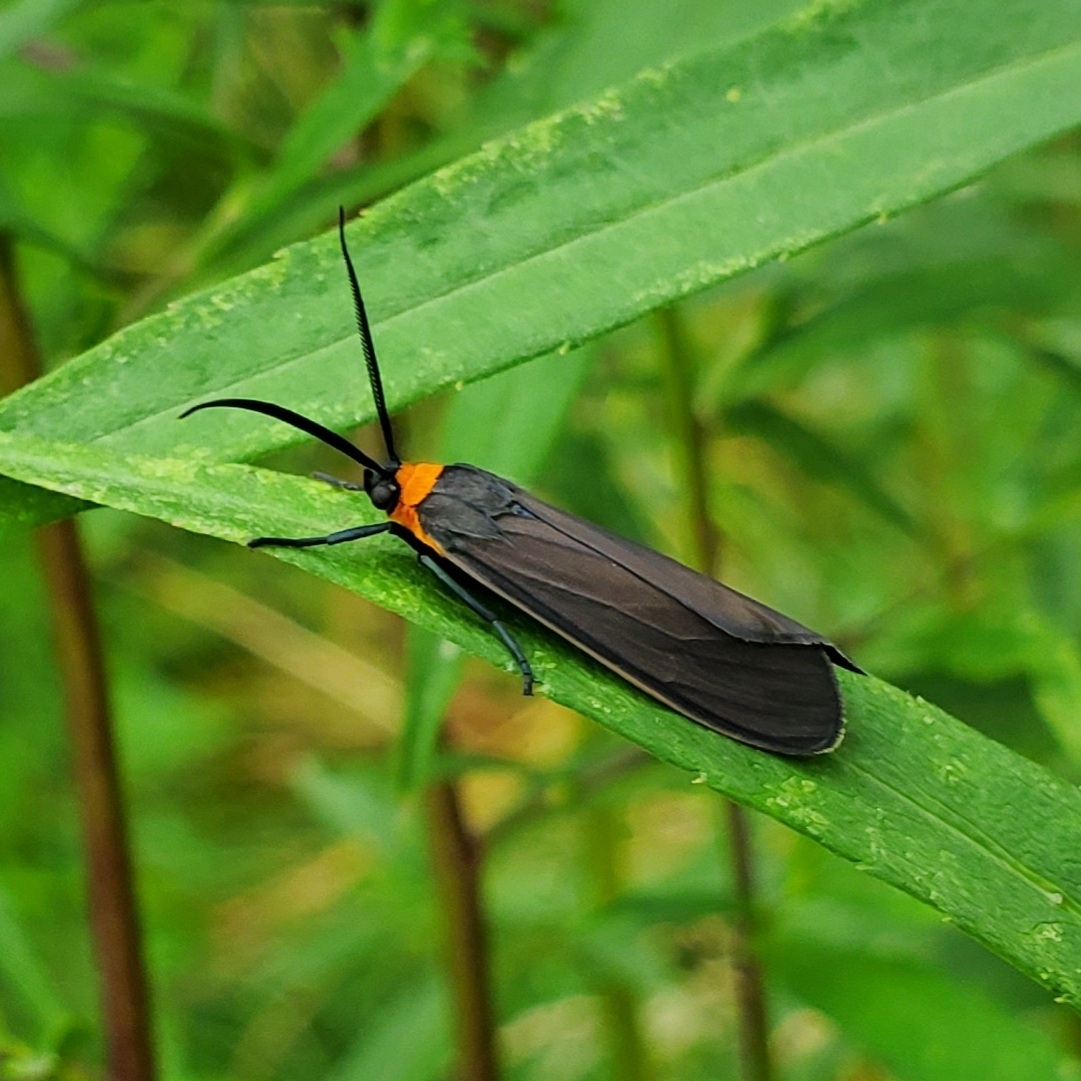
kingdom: Animalia
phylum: Arthropoda
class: Insecta
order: Lepidoptera
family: Erebidae
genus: Cisseps
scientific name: Cisseps fulvicollis
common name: Yellow-collared scape moth
